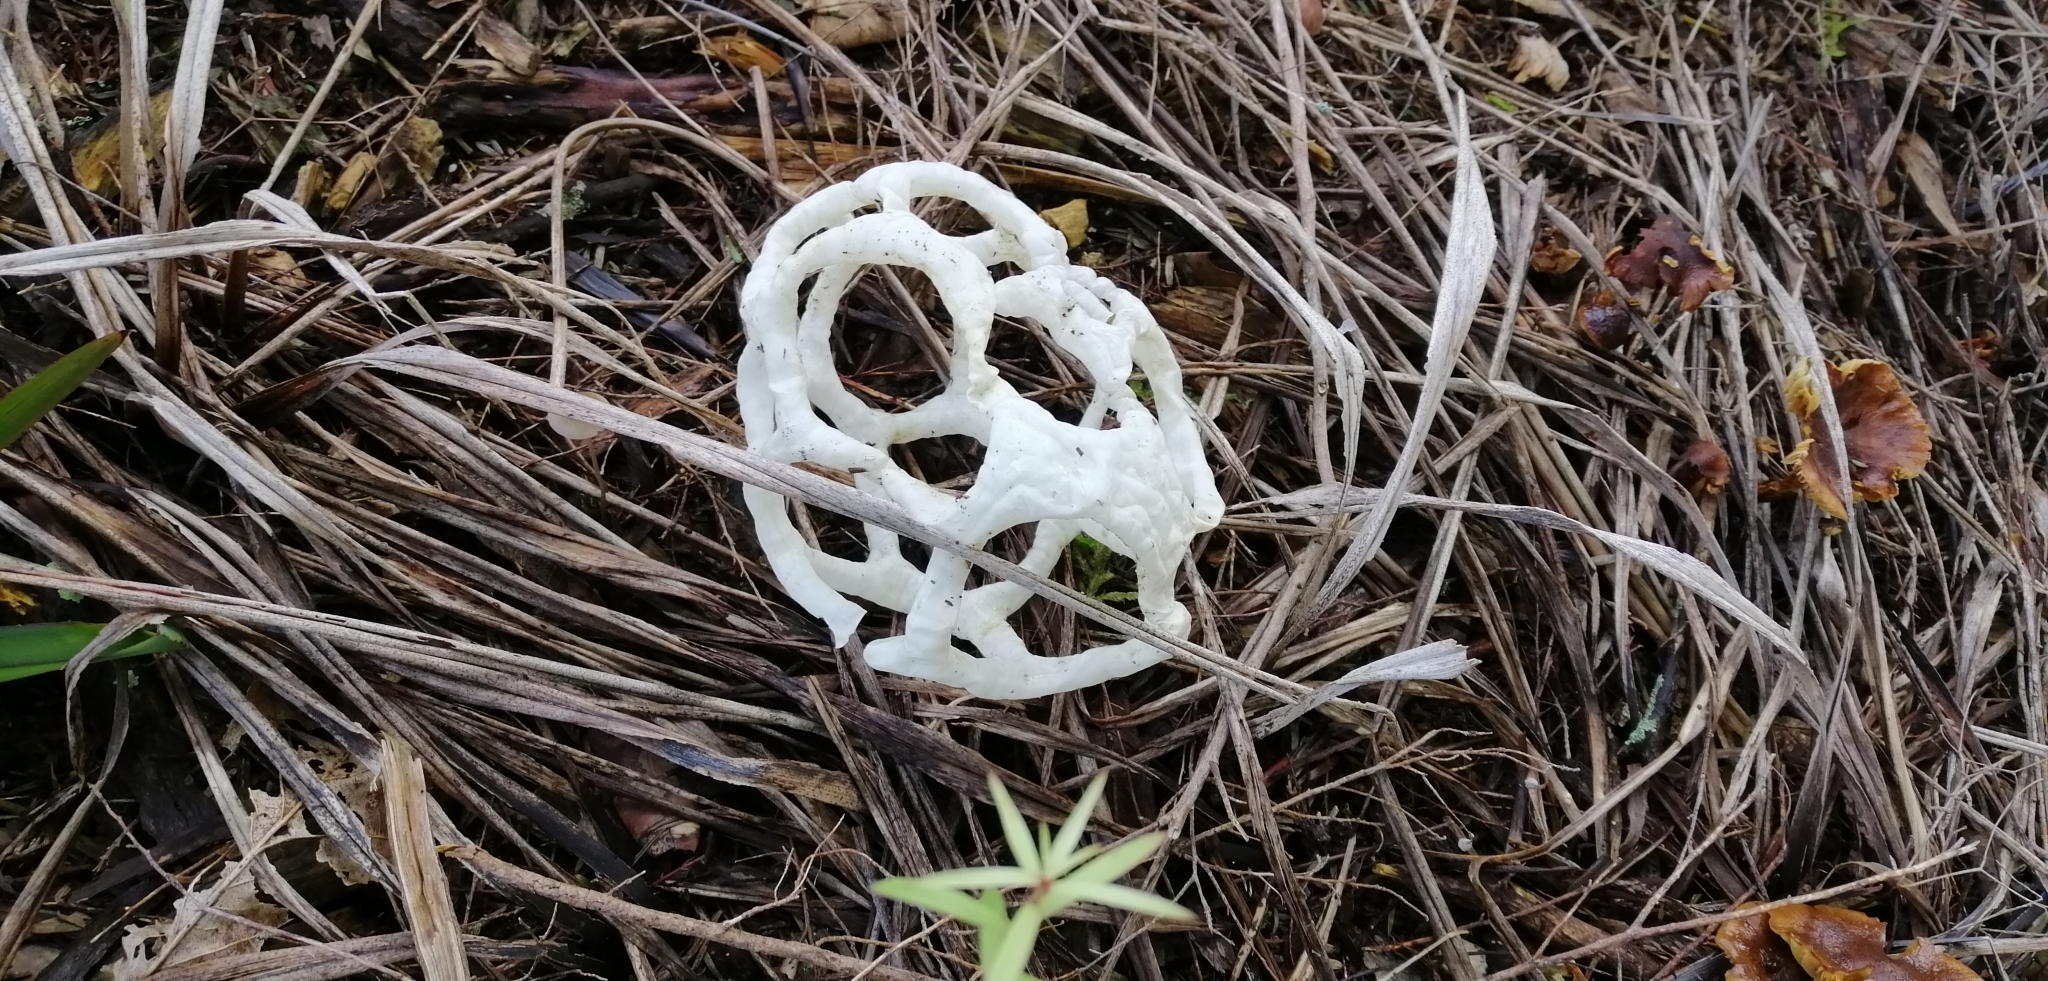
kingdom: Fungi
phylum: Basidiomycota
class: Agaricomycetes
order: Phallales
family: Phallaceae
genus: Ileodictyon
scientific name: Ileodictyon cibarium
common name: Basket fungus
